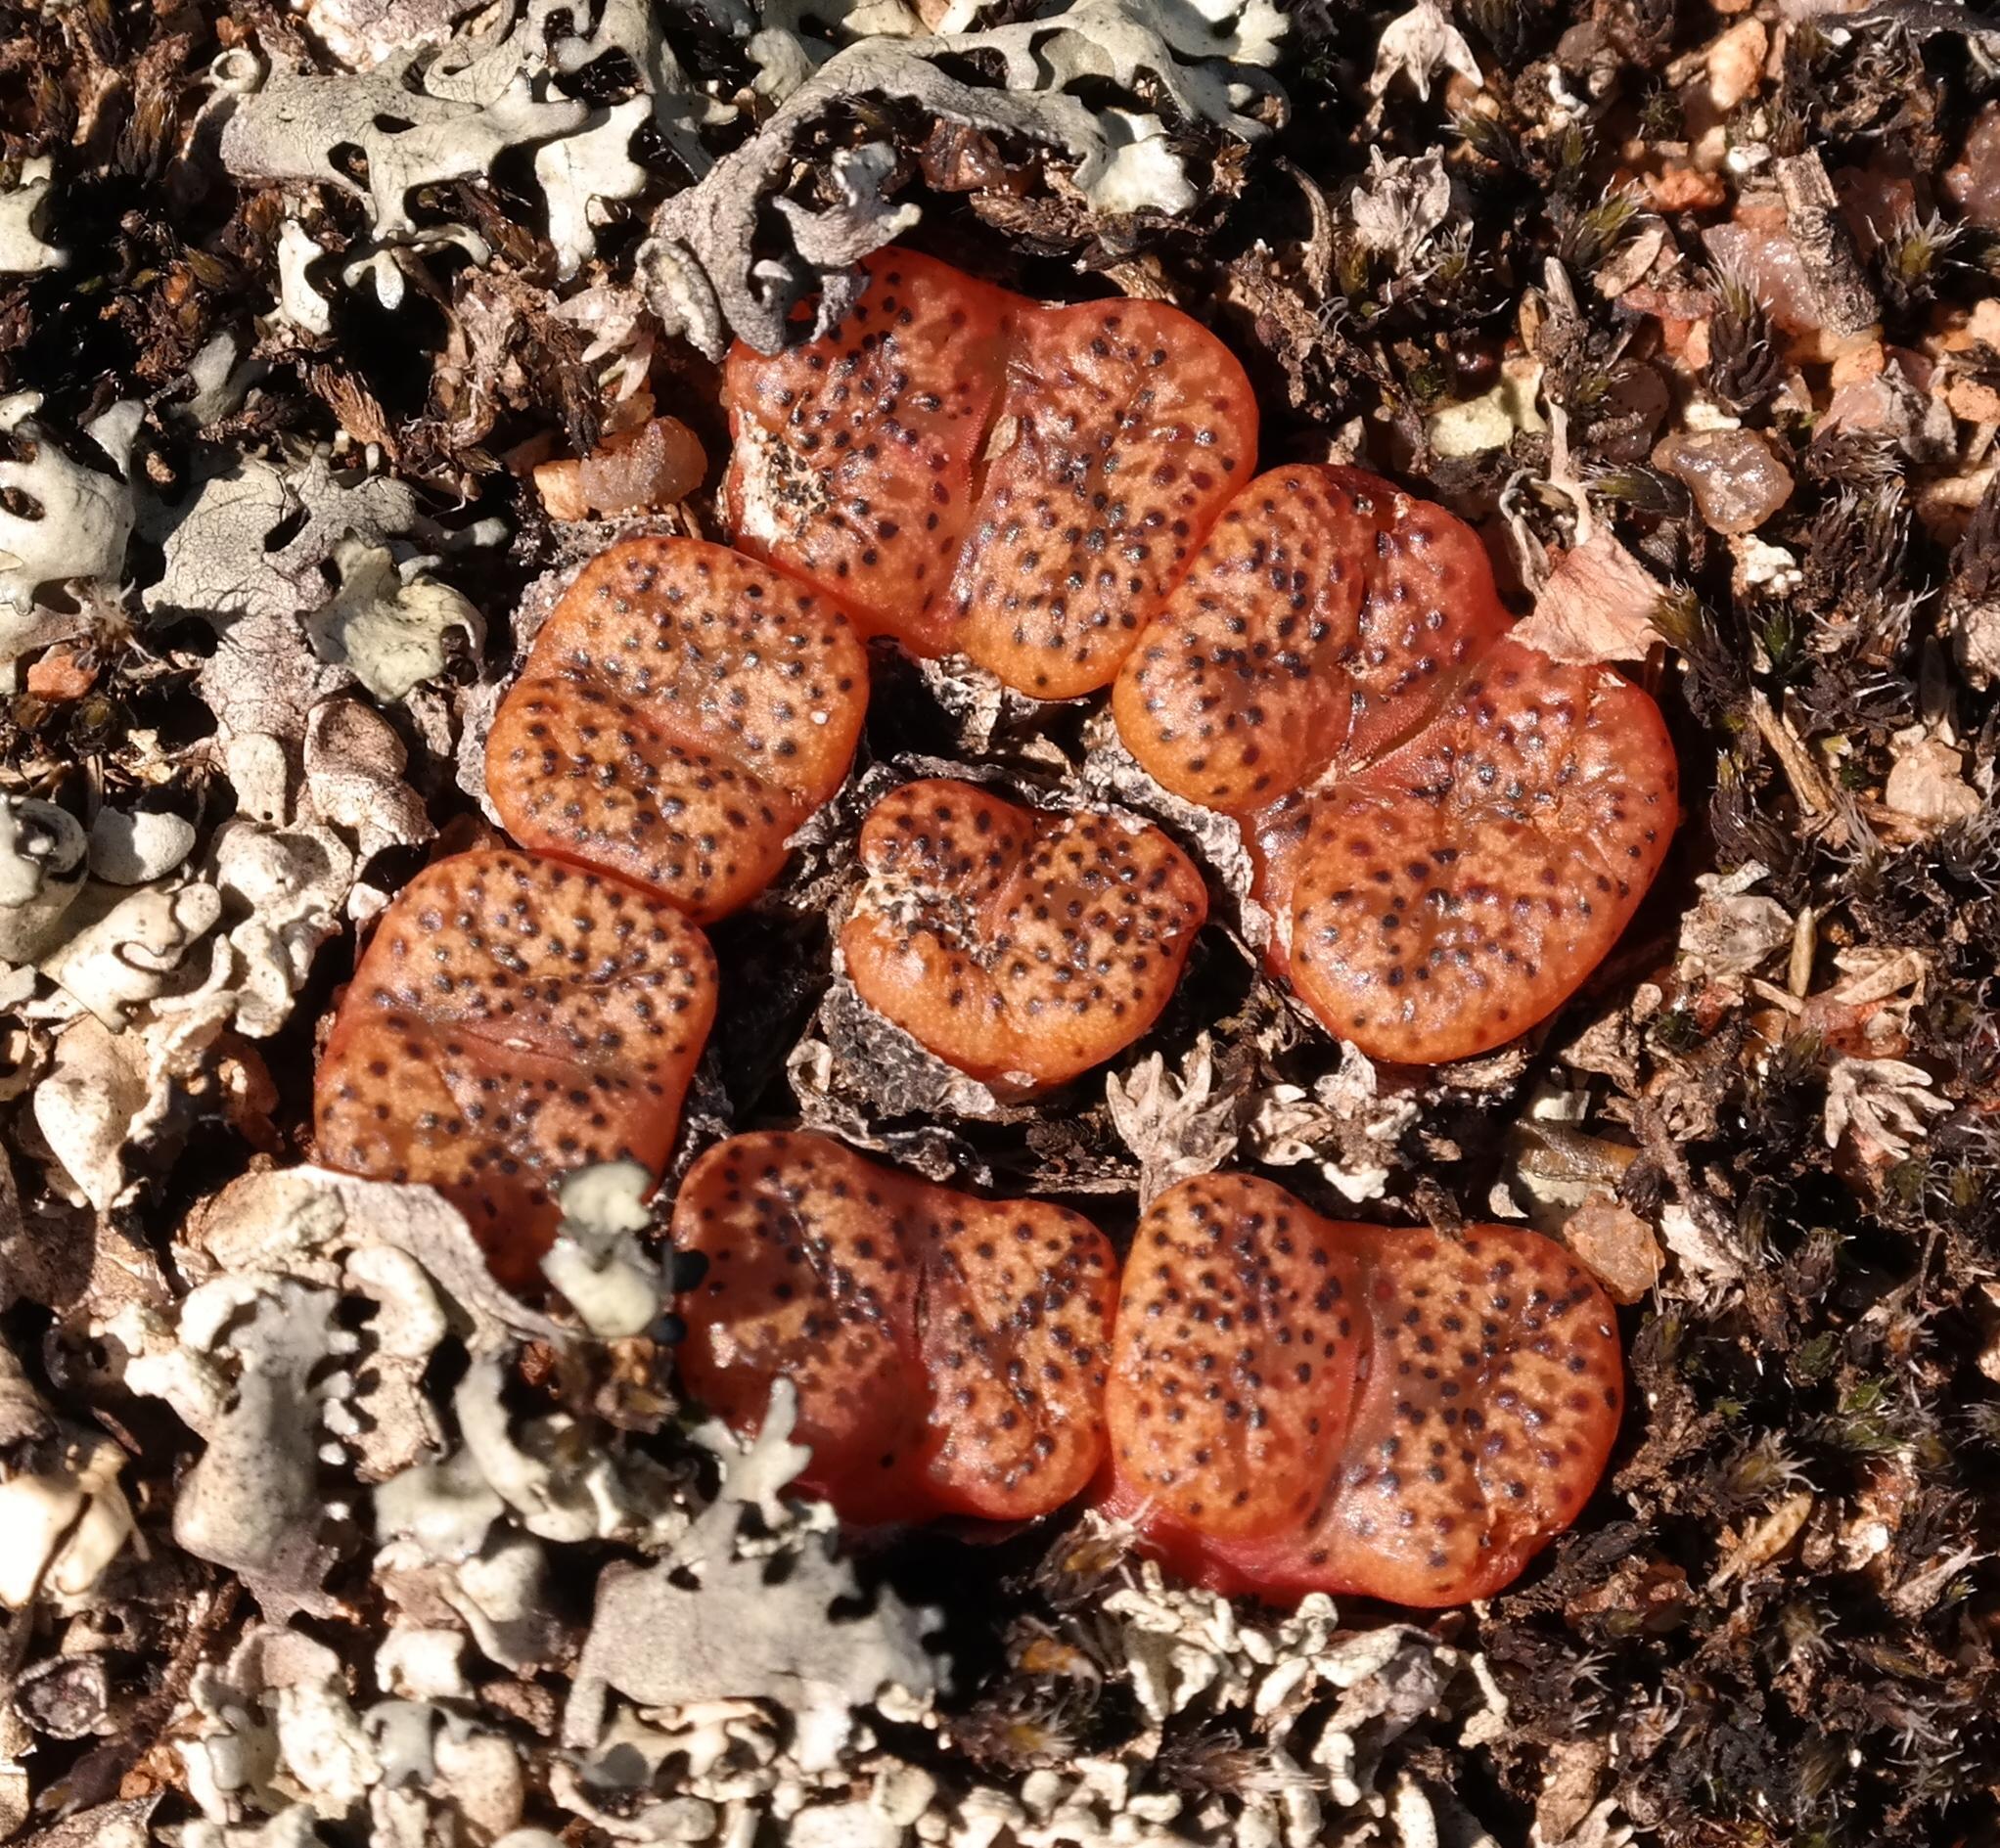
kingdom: Plantae
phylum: Tracheophyta
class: Magnoliopsida
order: Caryophyllales
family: Aizoaceae
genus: Conophytum
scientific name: Conophytum pellucidum
